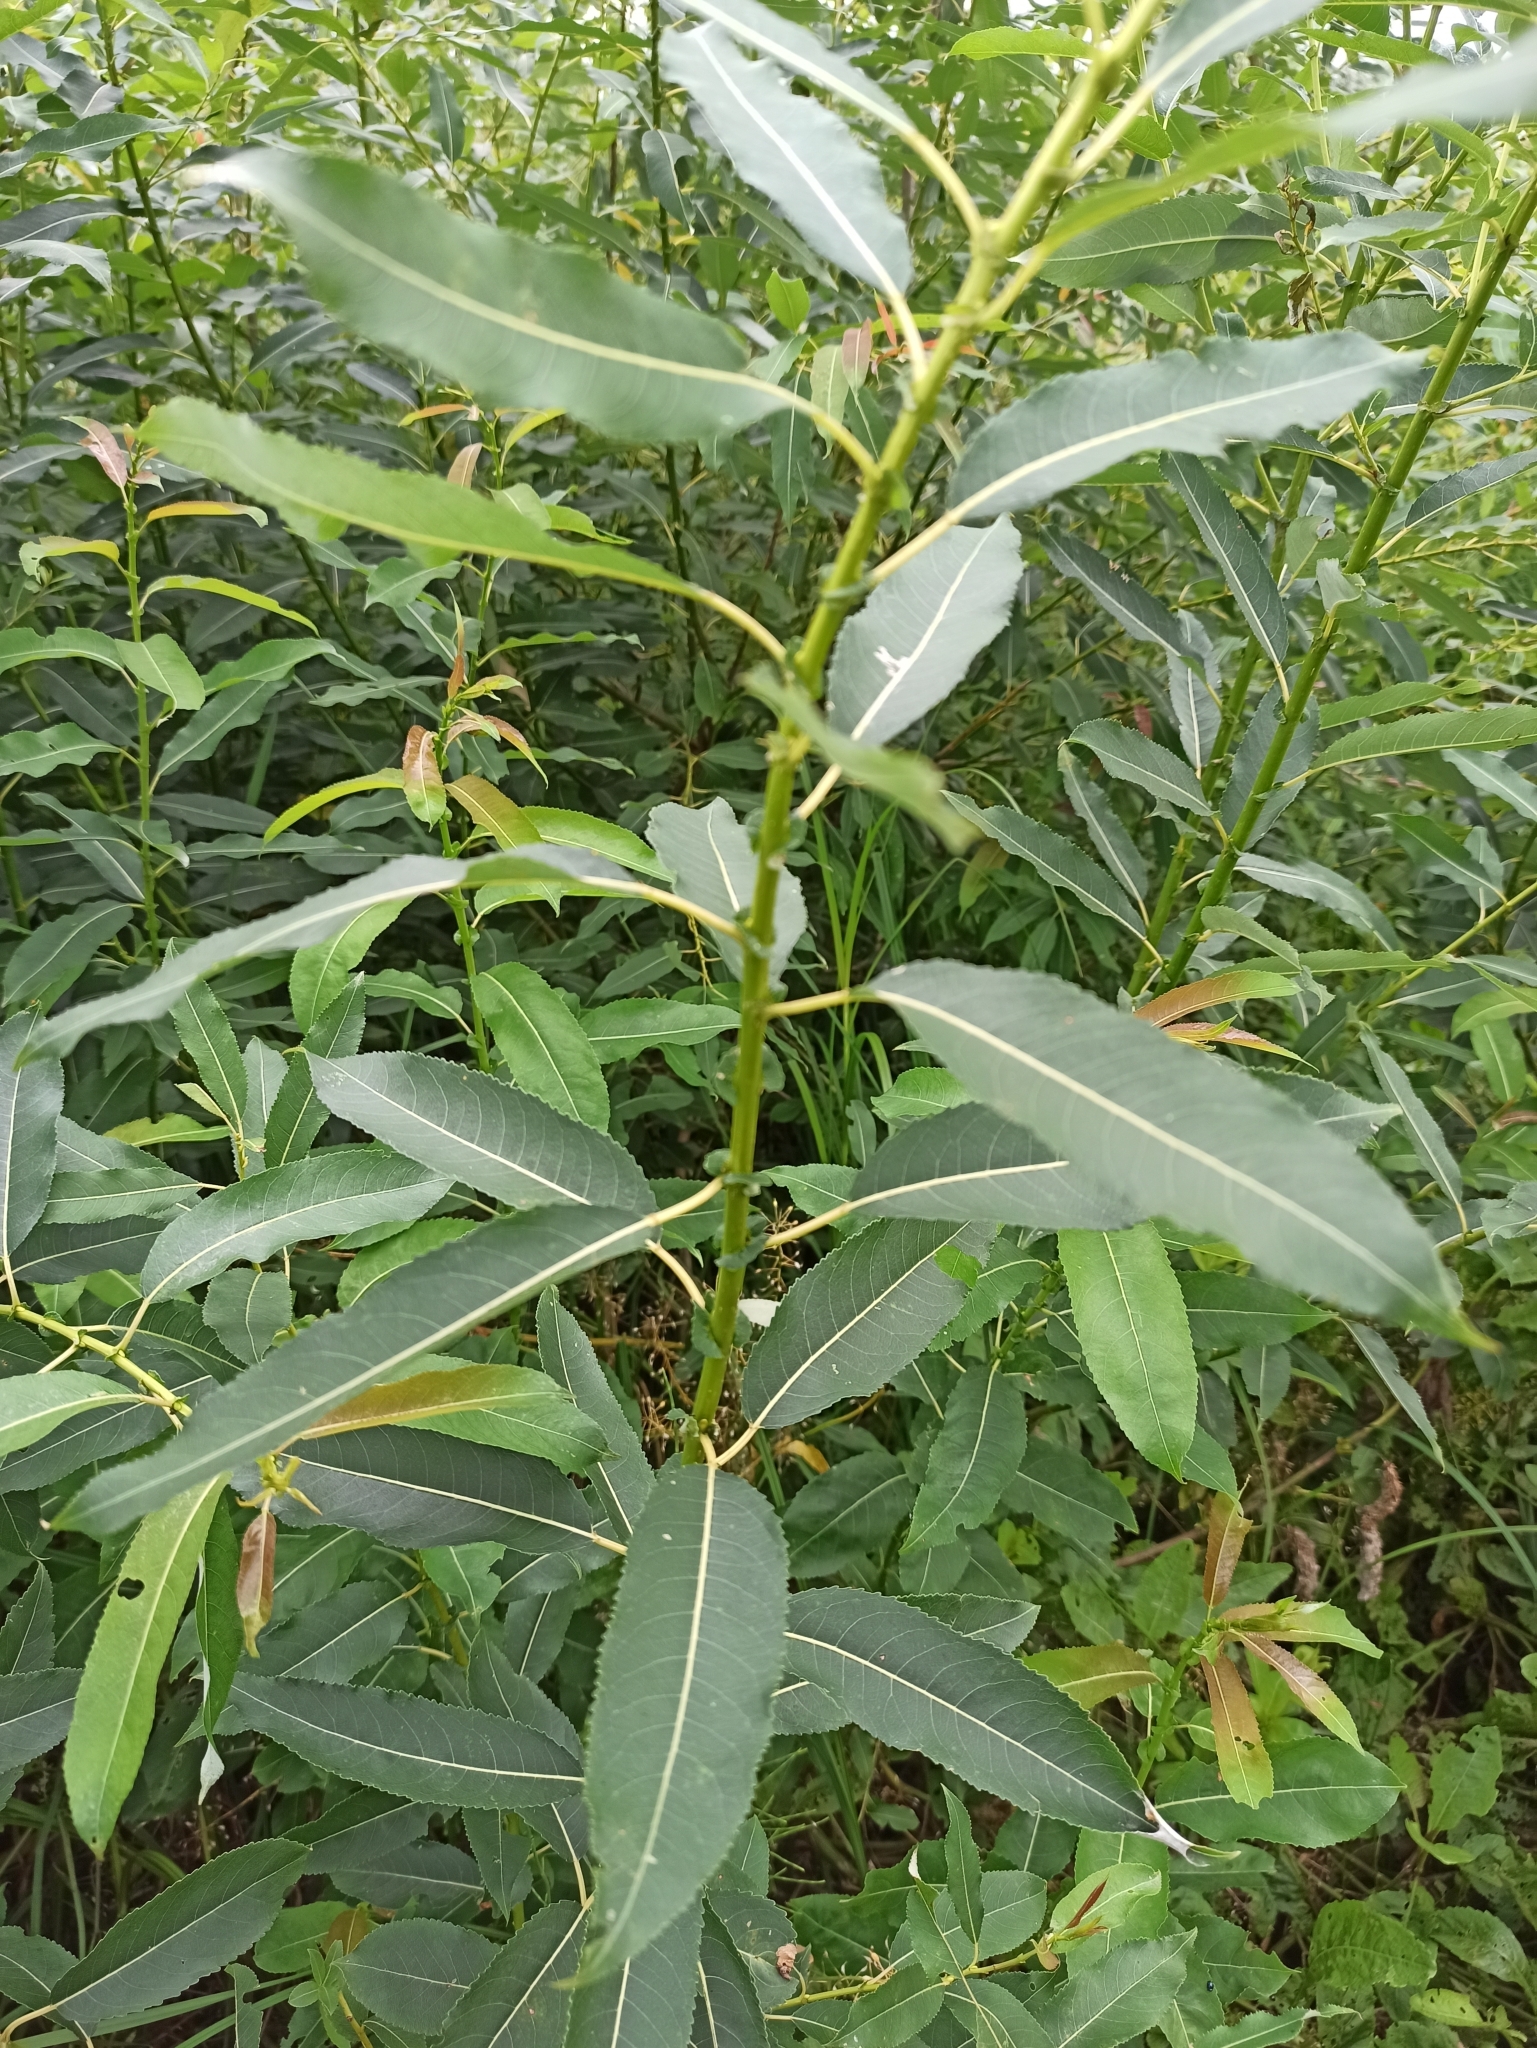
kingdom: Plantae
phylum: Tracheophyta
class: Magnoliopsida
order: Malpighiales
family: Salicaceae
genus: Salix
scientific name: Salix triandra
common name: Almond willow
